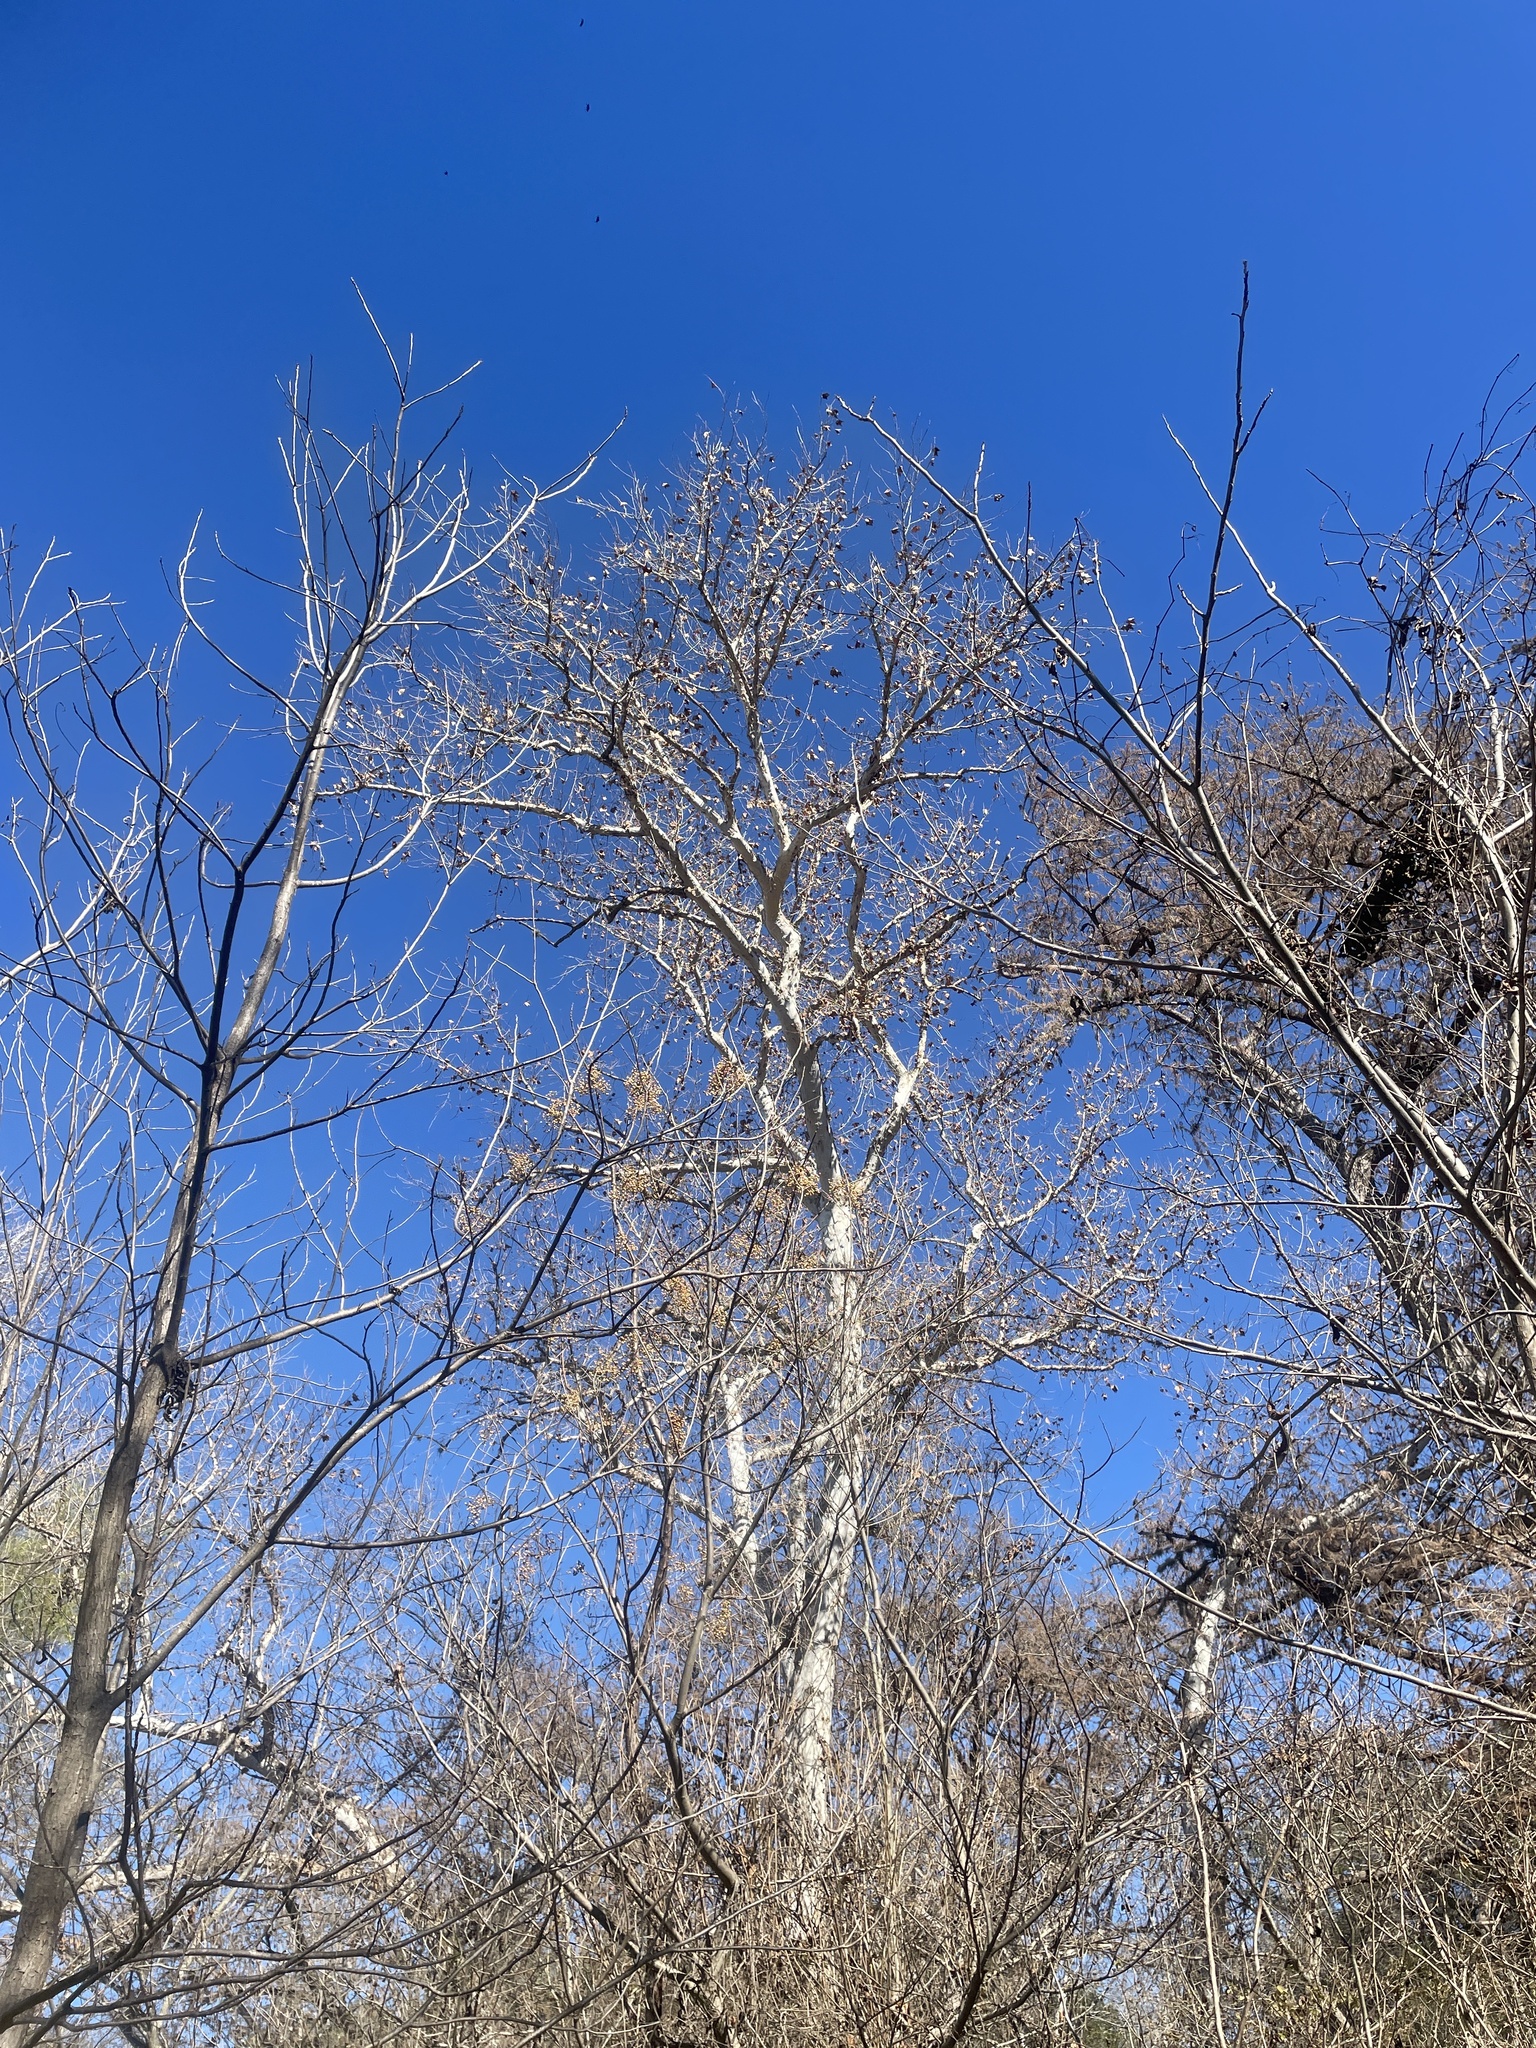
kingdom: Plantae
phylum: Tracheophyta
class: Magnoliopsida
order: Proteales
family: Platanaceae
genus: Platanus
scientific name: Platanus occidentalis
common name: American sycamore
